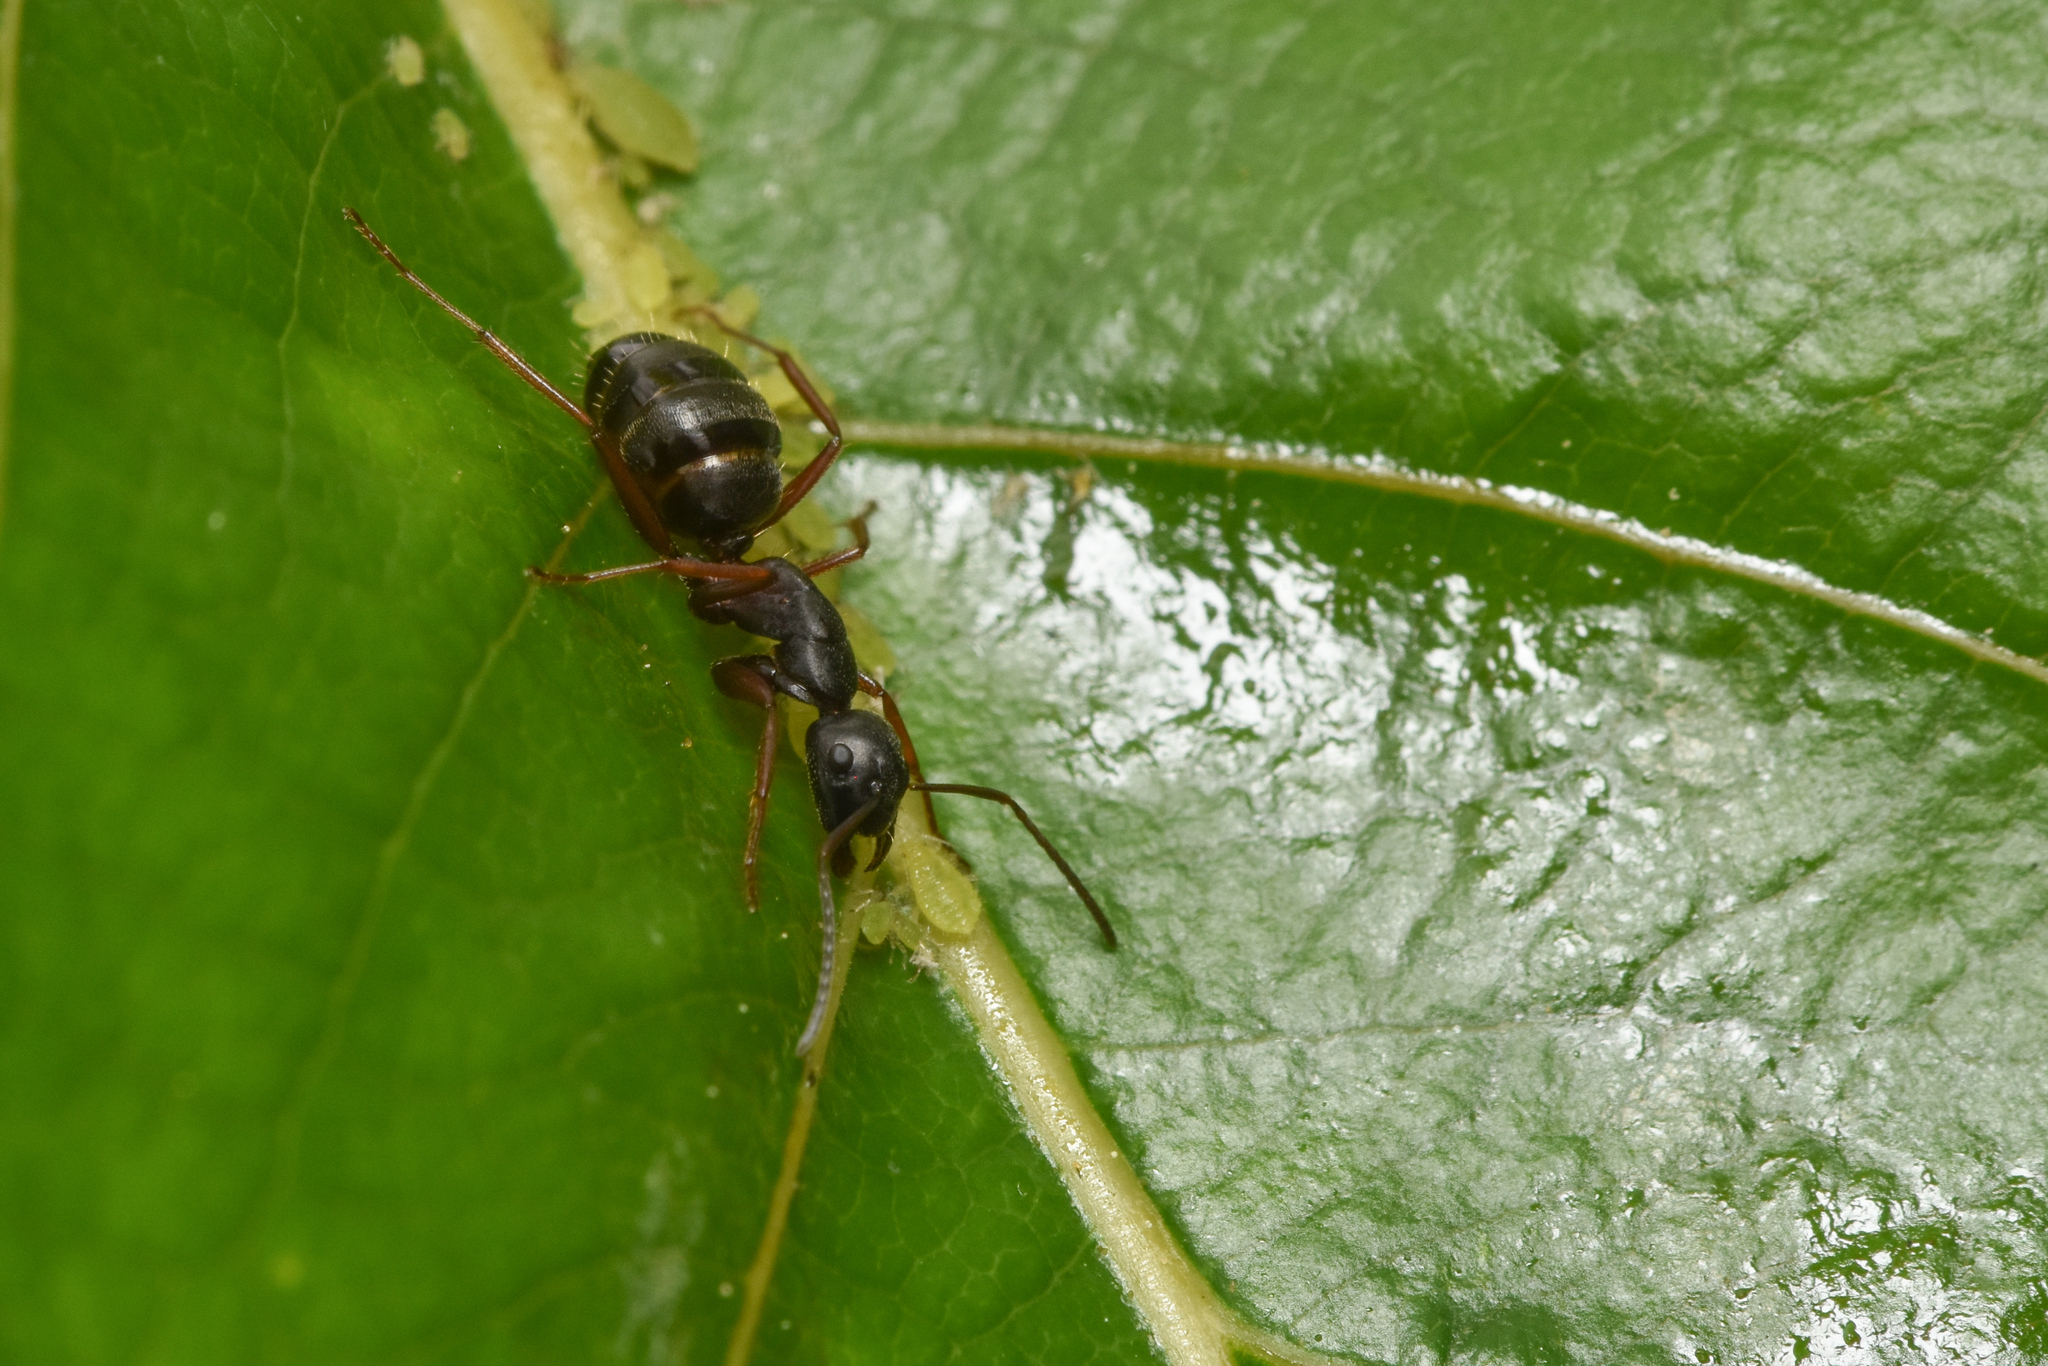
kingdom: Animalia
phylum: Arthropoda
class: Insecta
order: Hymenoptera
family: Formicidae
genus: Camponotus
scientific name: Camponotus herculeanus
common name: Hercules ant
